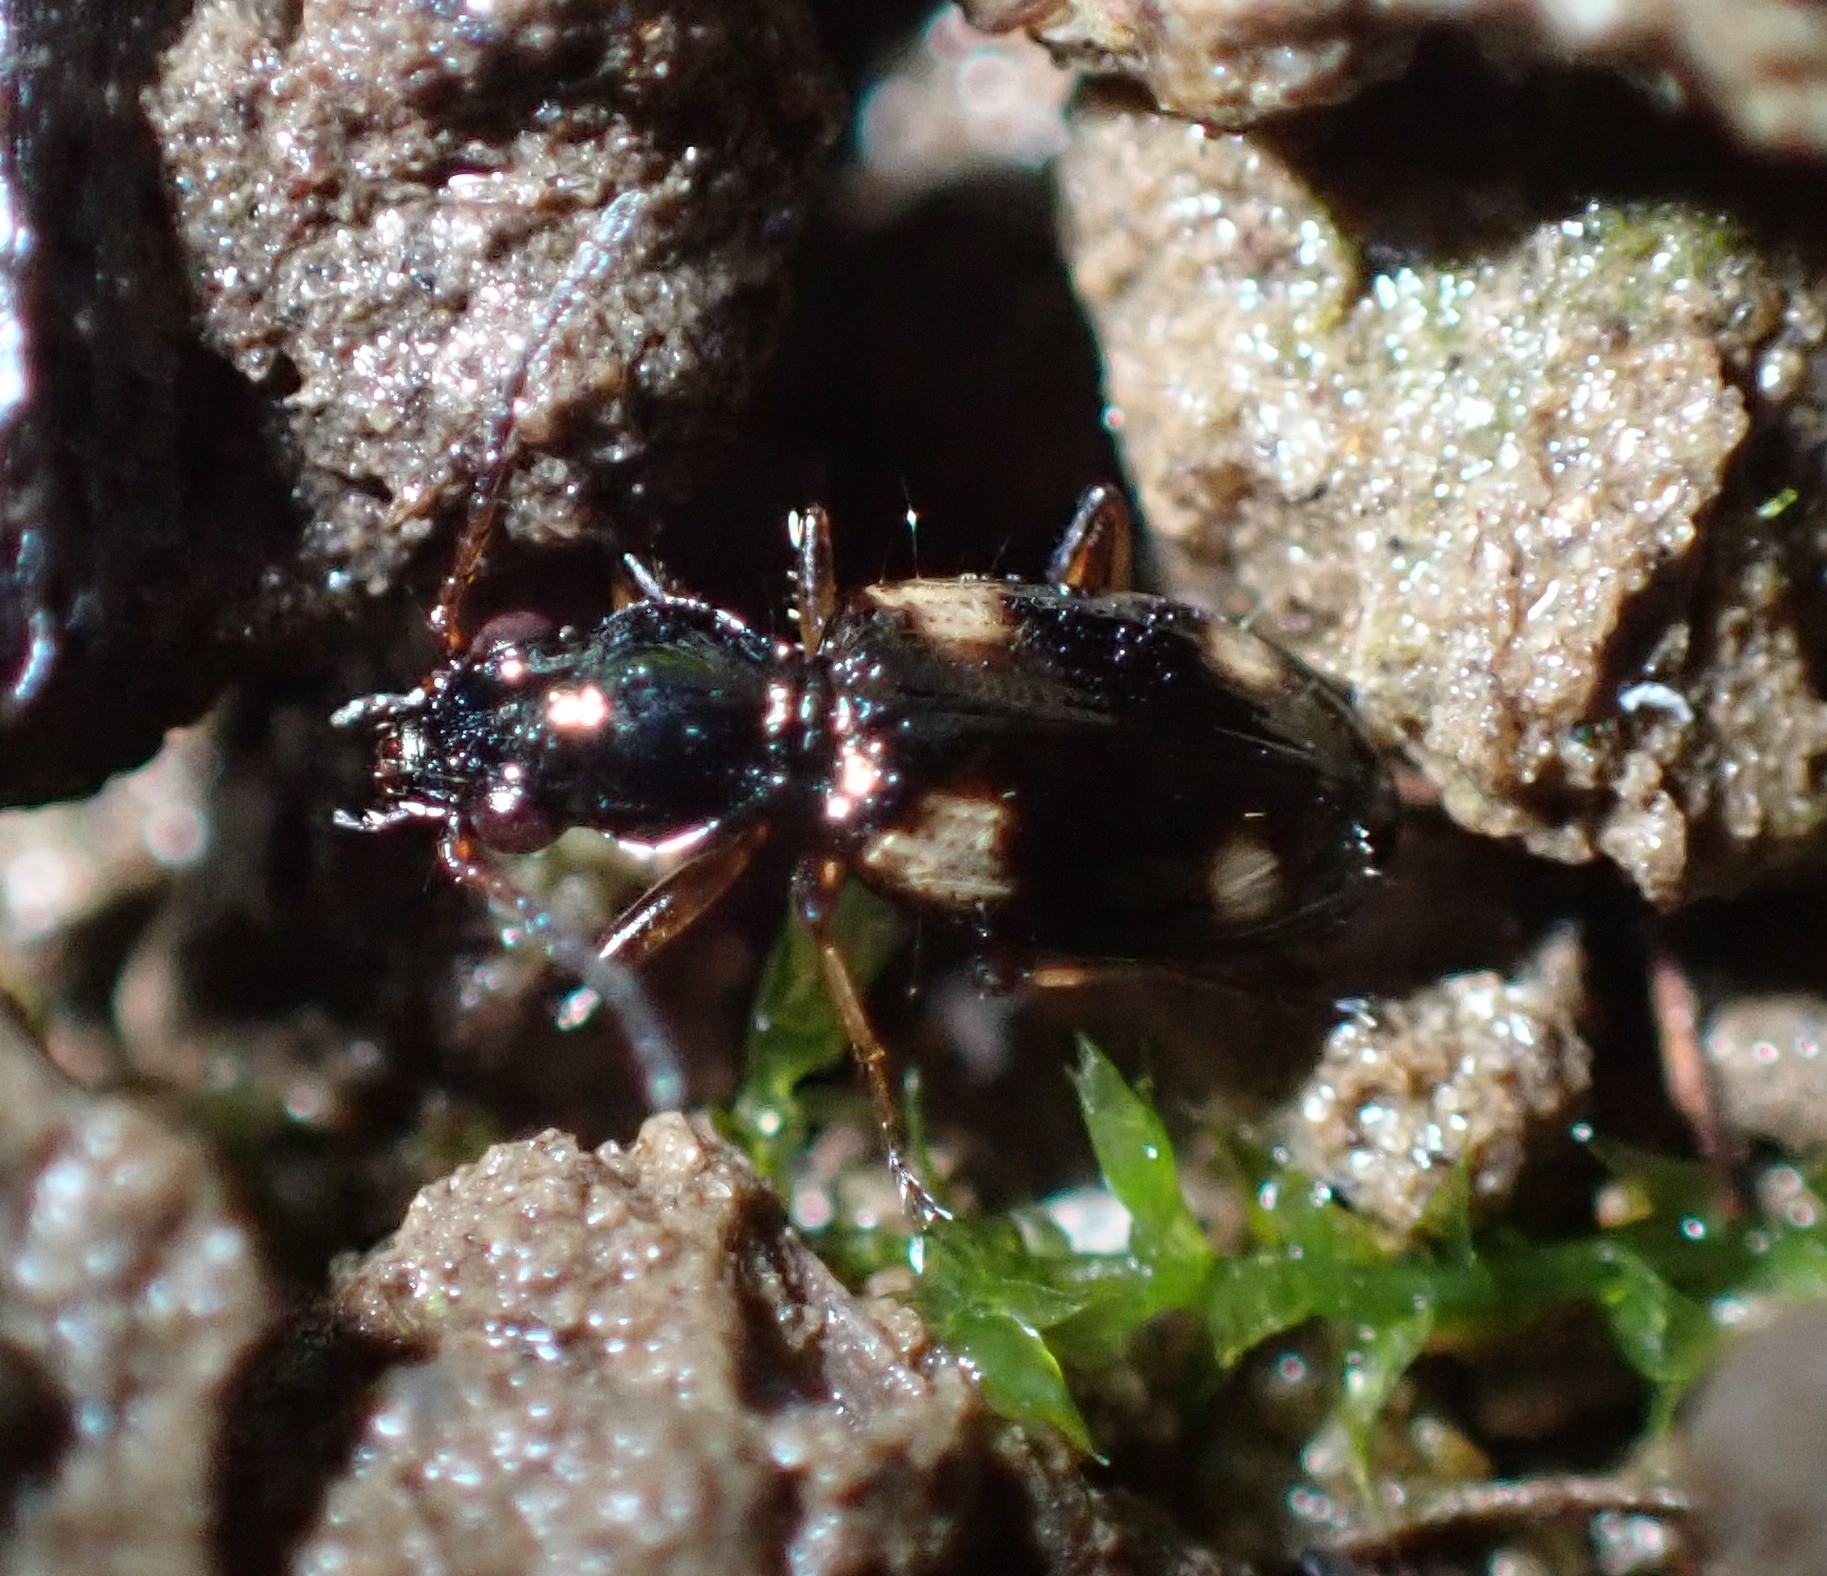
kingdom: Animalia
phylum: Arthropoda
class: Insecta
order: Coleoptera
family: Carabidae
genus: Bembidion
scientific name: Bembidion quadrimaculatum
